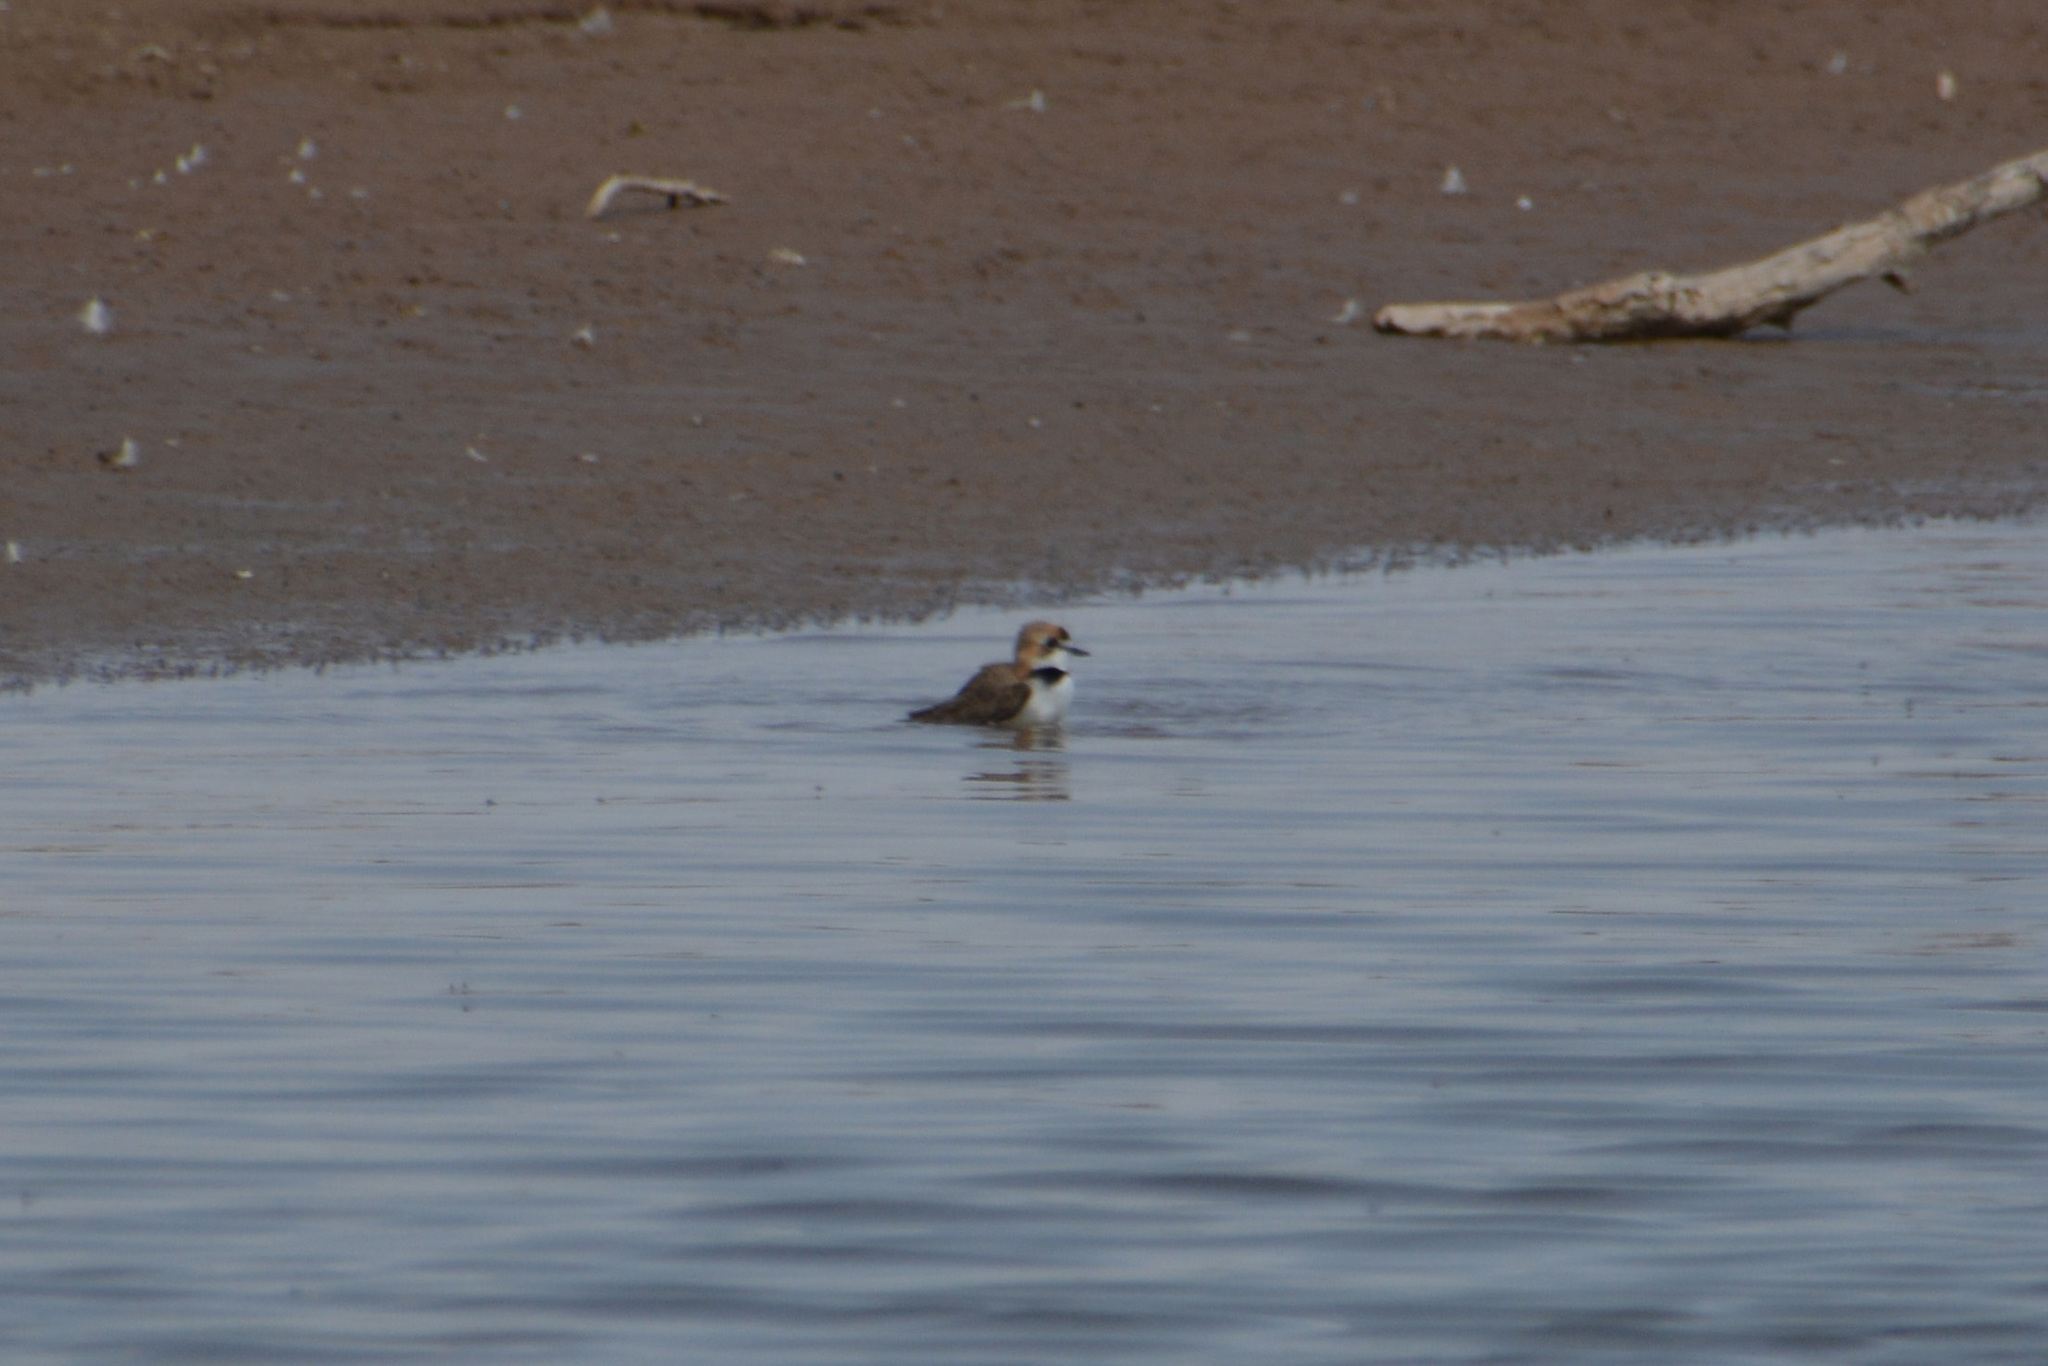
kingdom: Animalia
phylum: Chordata
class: Aves
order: Charadriiformes
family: Charadriidae
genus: Anarhynchus
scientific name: Anarhynchus
